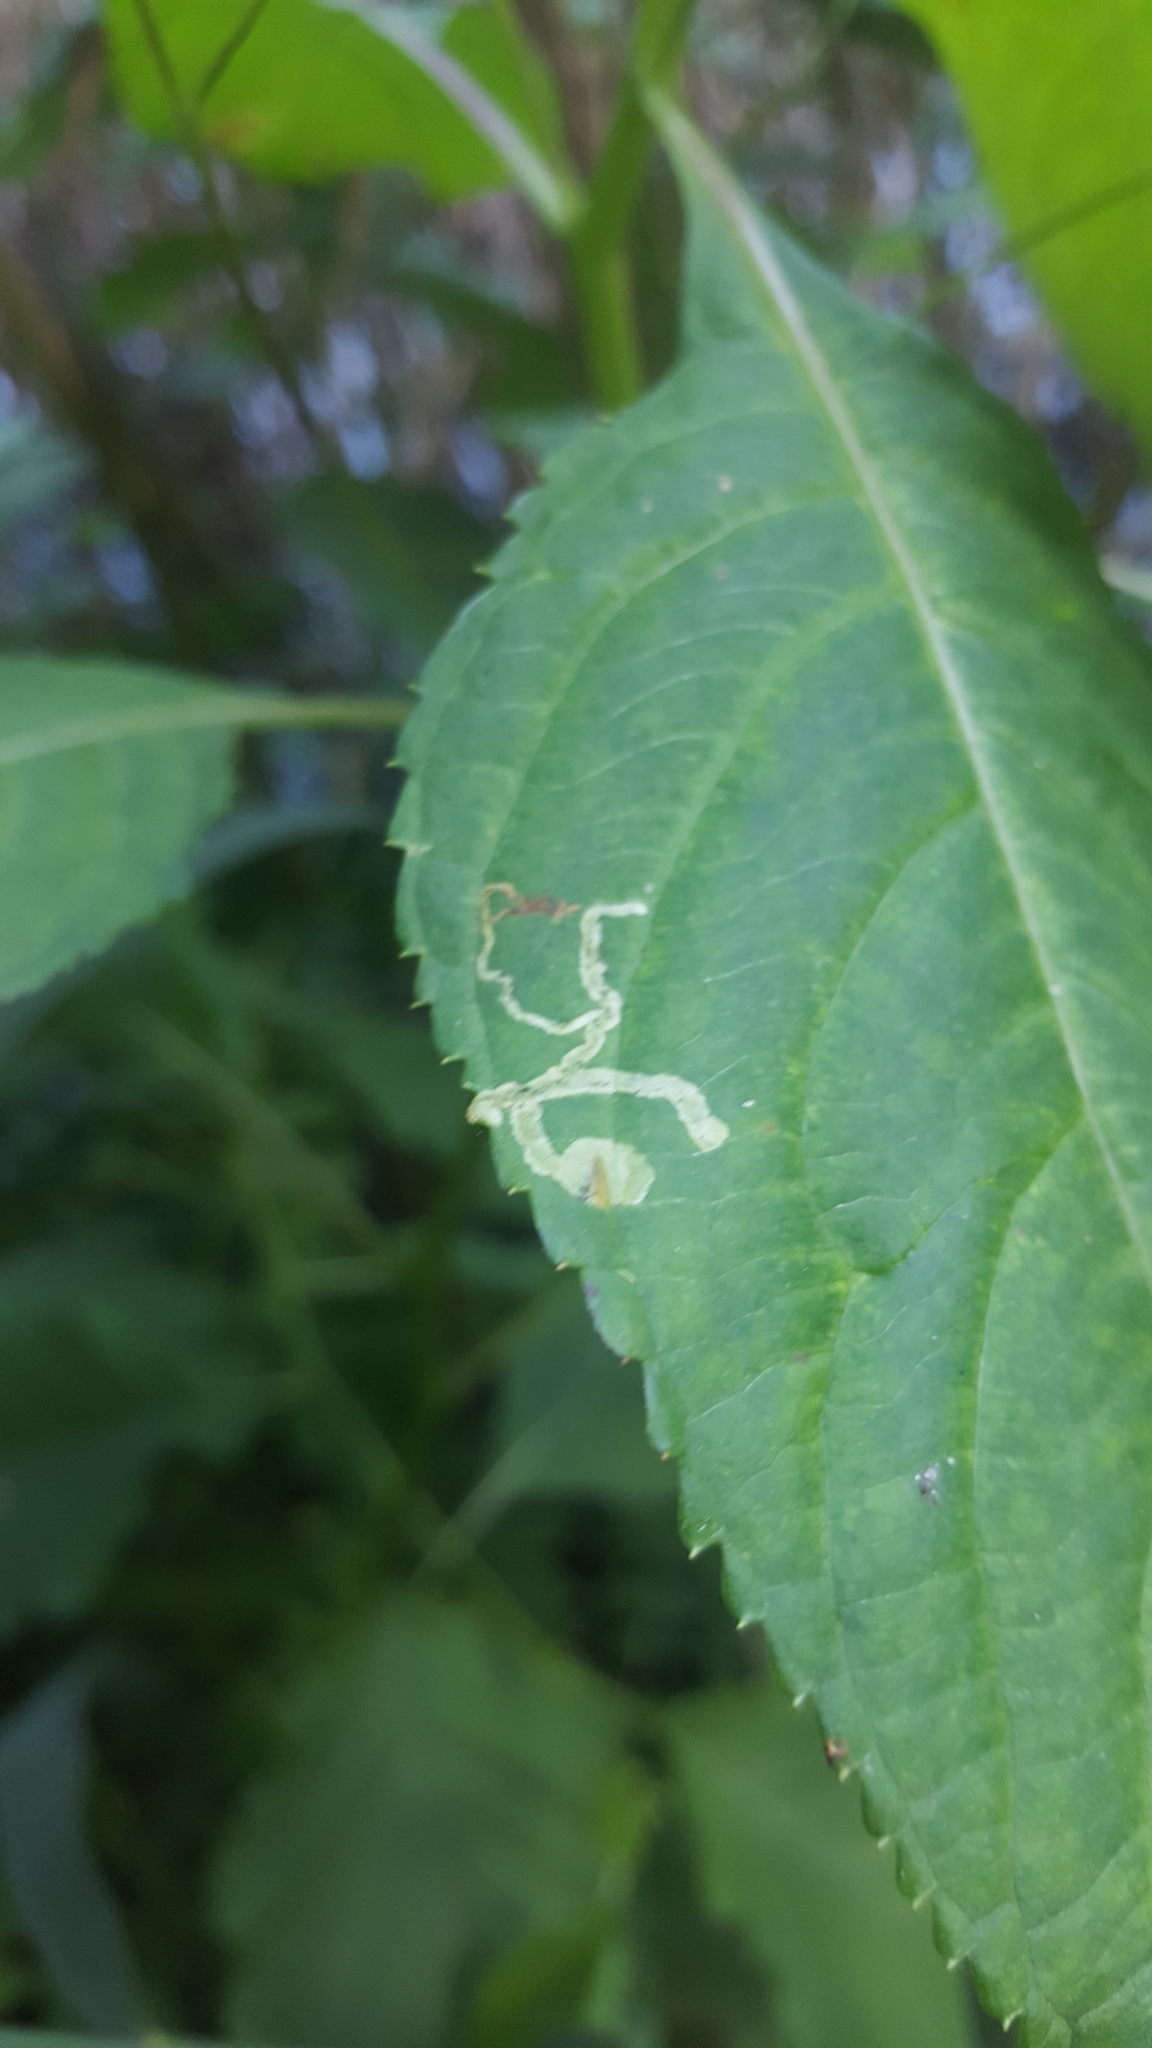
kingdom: Animalia
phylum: Arthropoda
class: Insecta
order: Diptera
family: Agromyzidae
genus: Phytoliriomyza
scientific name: Phytoliriomyza melampyga
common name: Jewelweed leaf-miner fly
